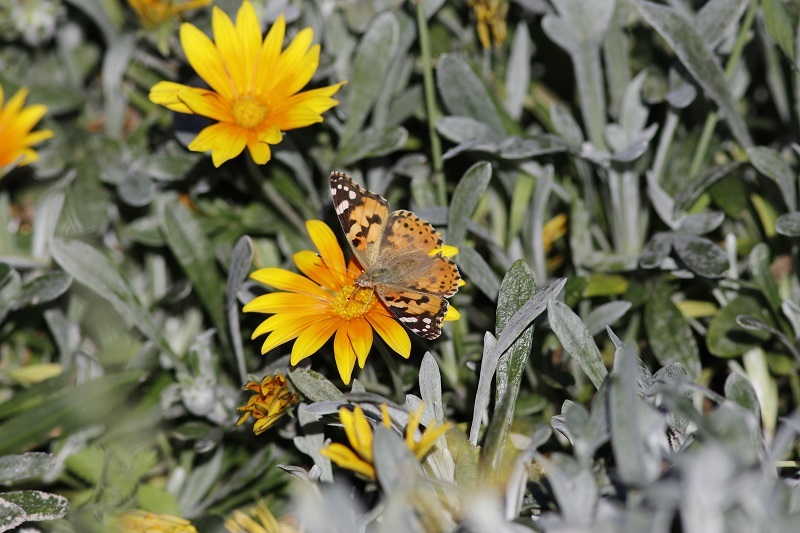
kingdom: Animalia
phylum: Arthropoda
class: Insecta
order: Lepidoptera
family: Nymphalidae
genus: Vanessa
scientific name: Vanessa cardui
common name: Painted lady
